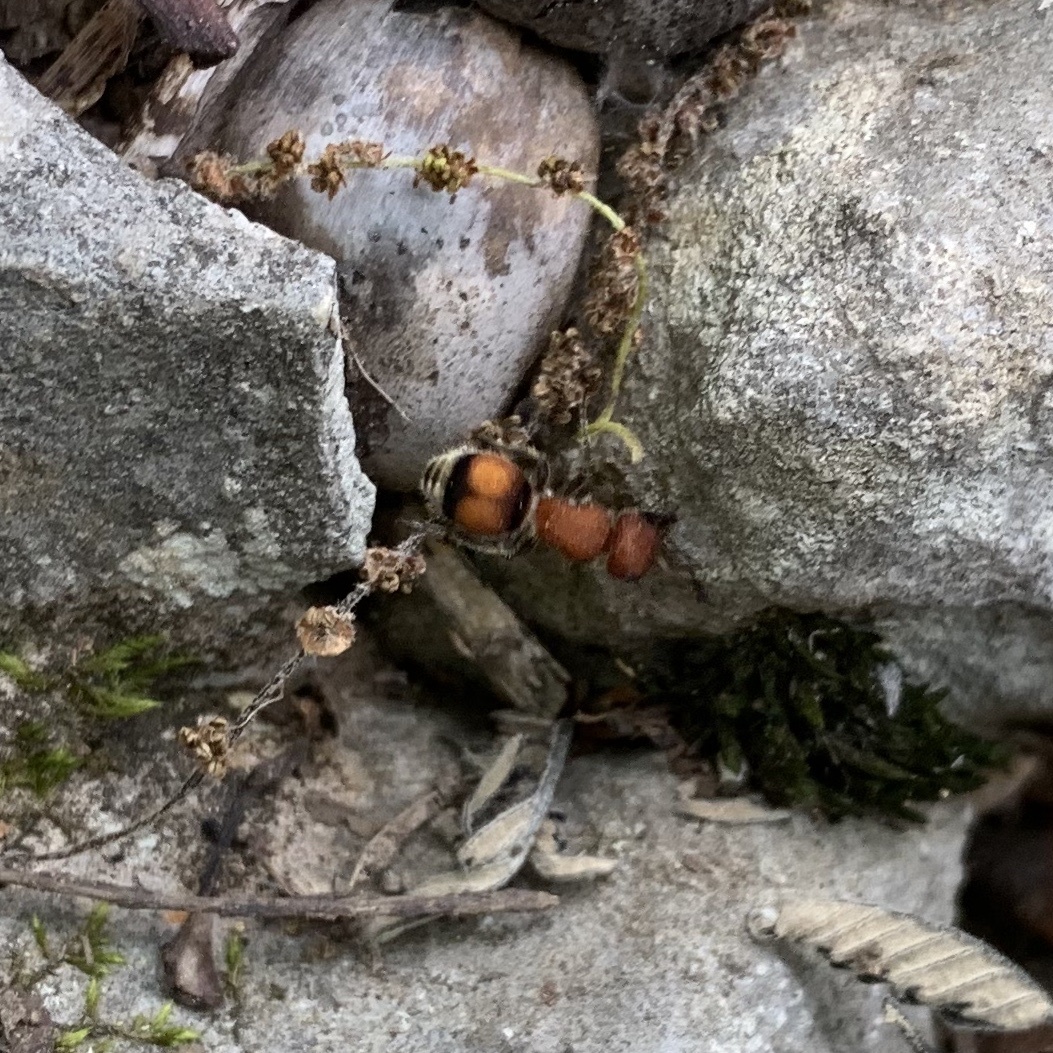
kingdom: Animalia
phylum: Arthropoda
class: Insecta
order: Hymenoptera
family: Mutillidae
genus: Pseudomethoca
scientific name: Pseudomethoca
